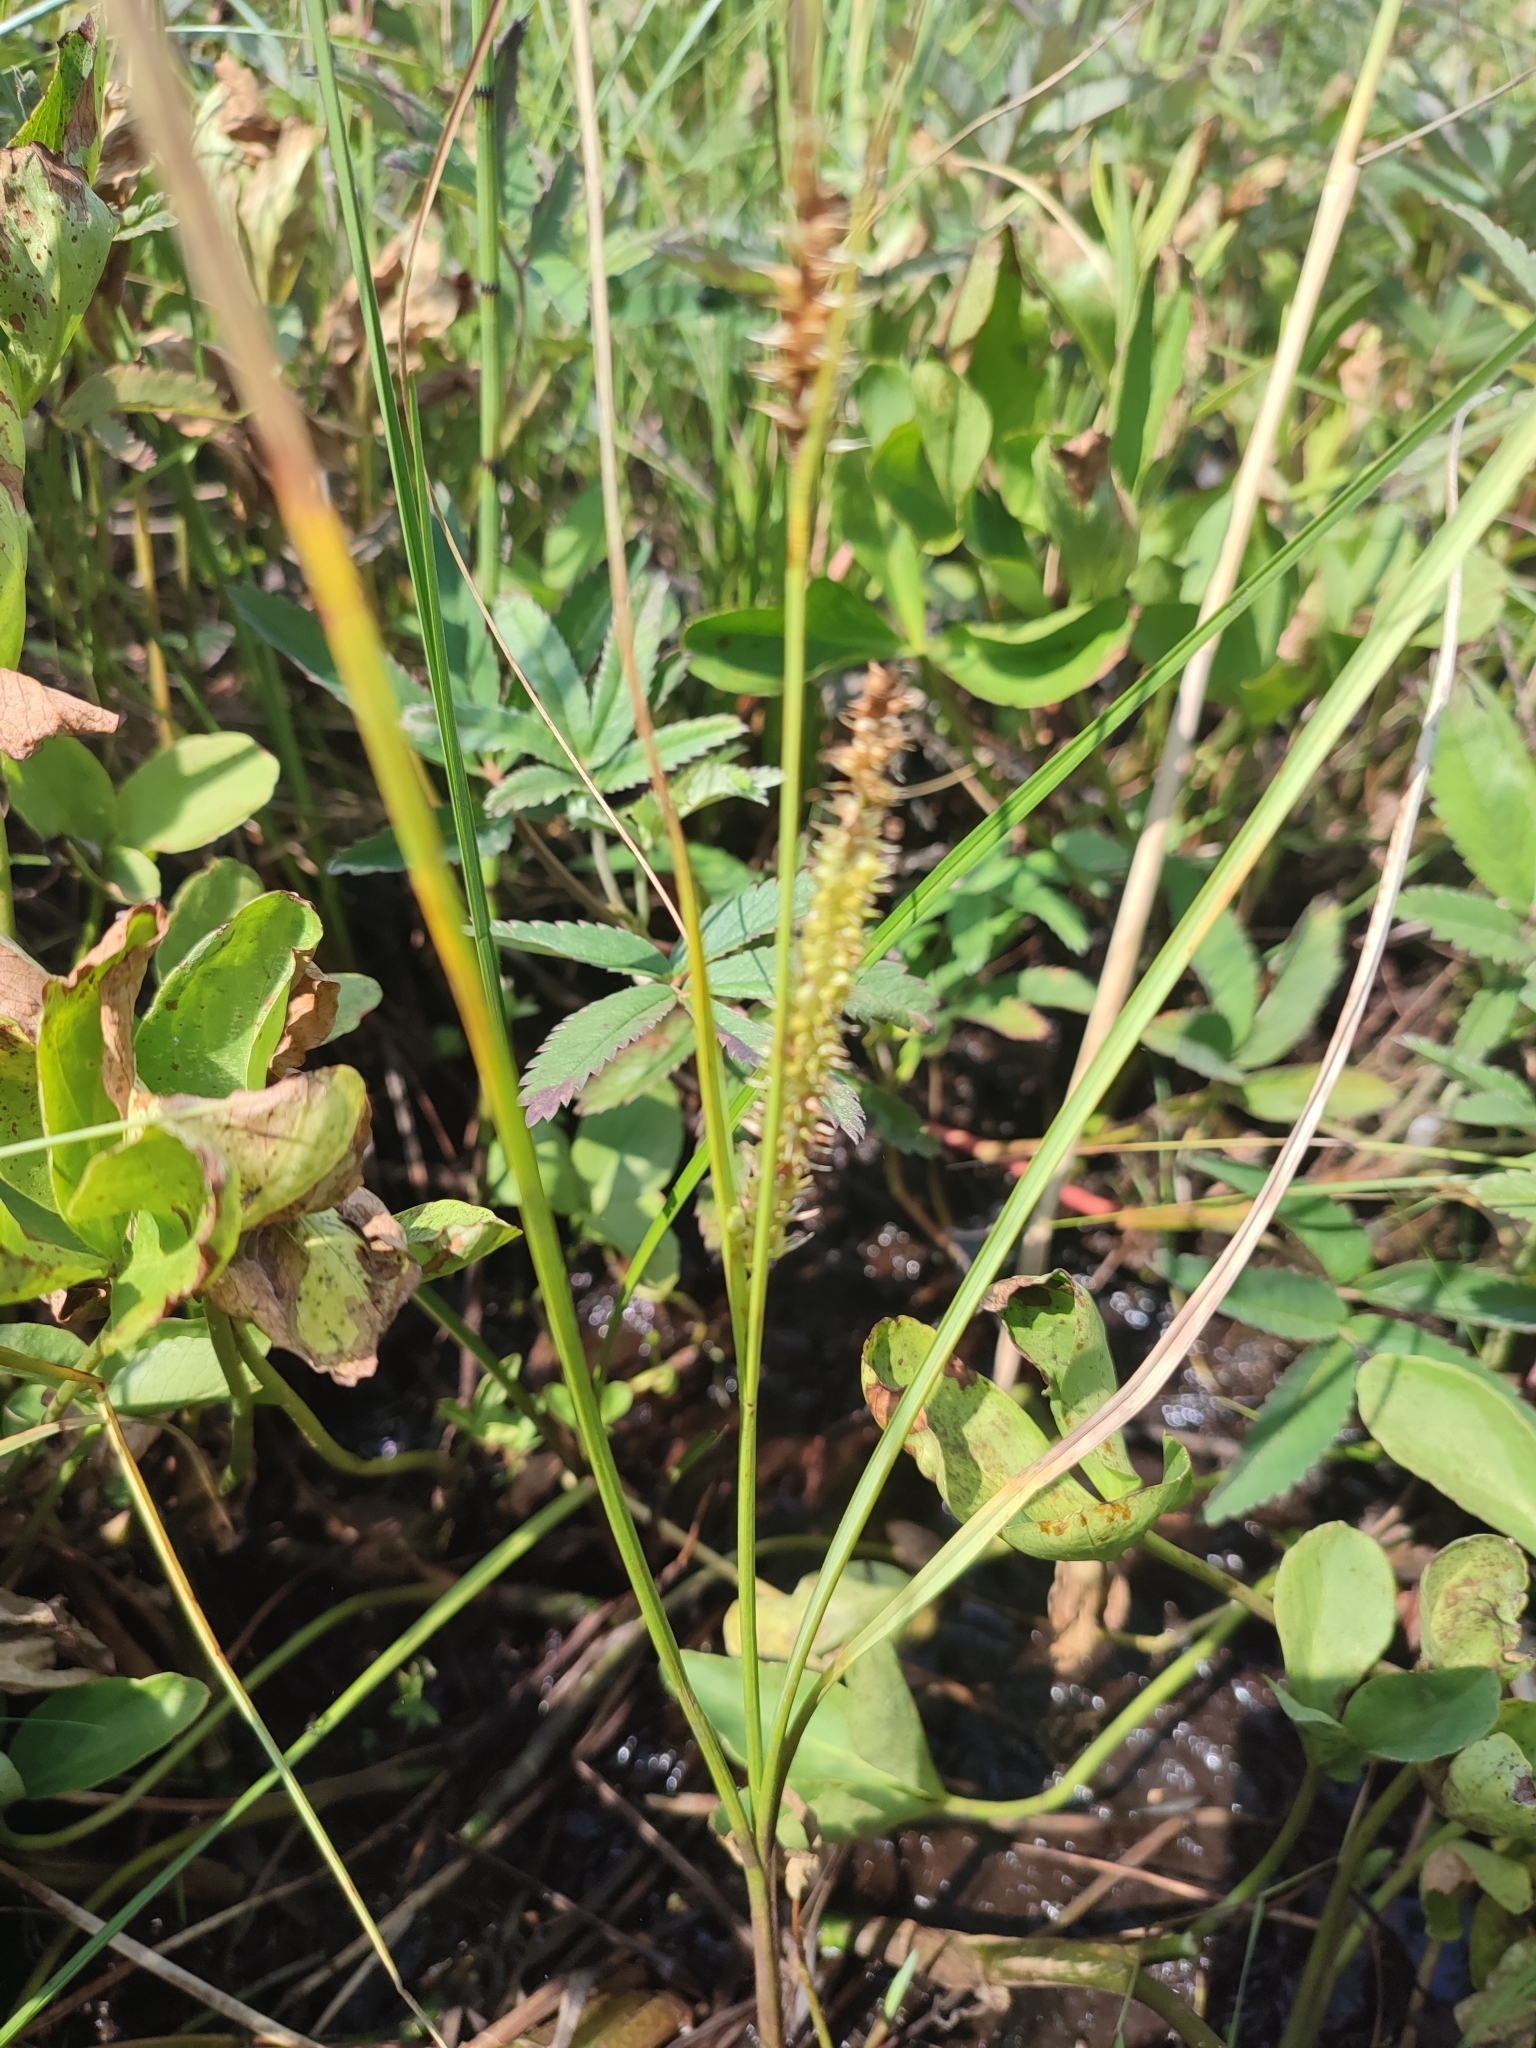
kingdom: Plantae
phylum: Tracheophyta
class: Liliopsida
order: Poales
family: Cyperaceae
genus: Carex
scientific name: Carex rostrata
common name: Bottle sedge
